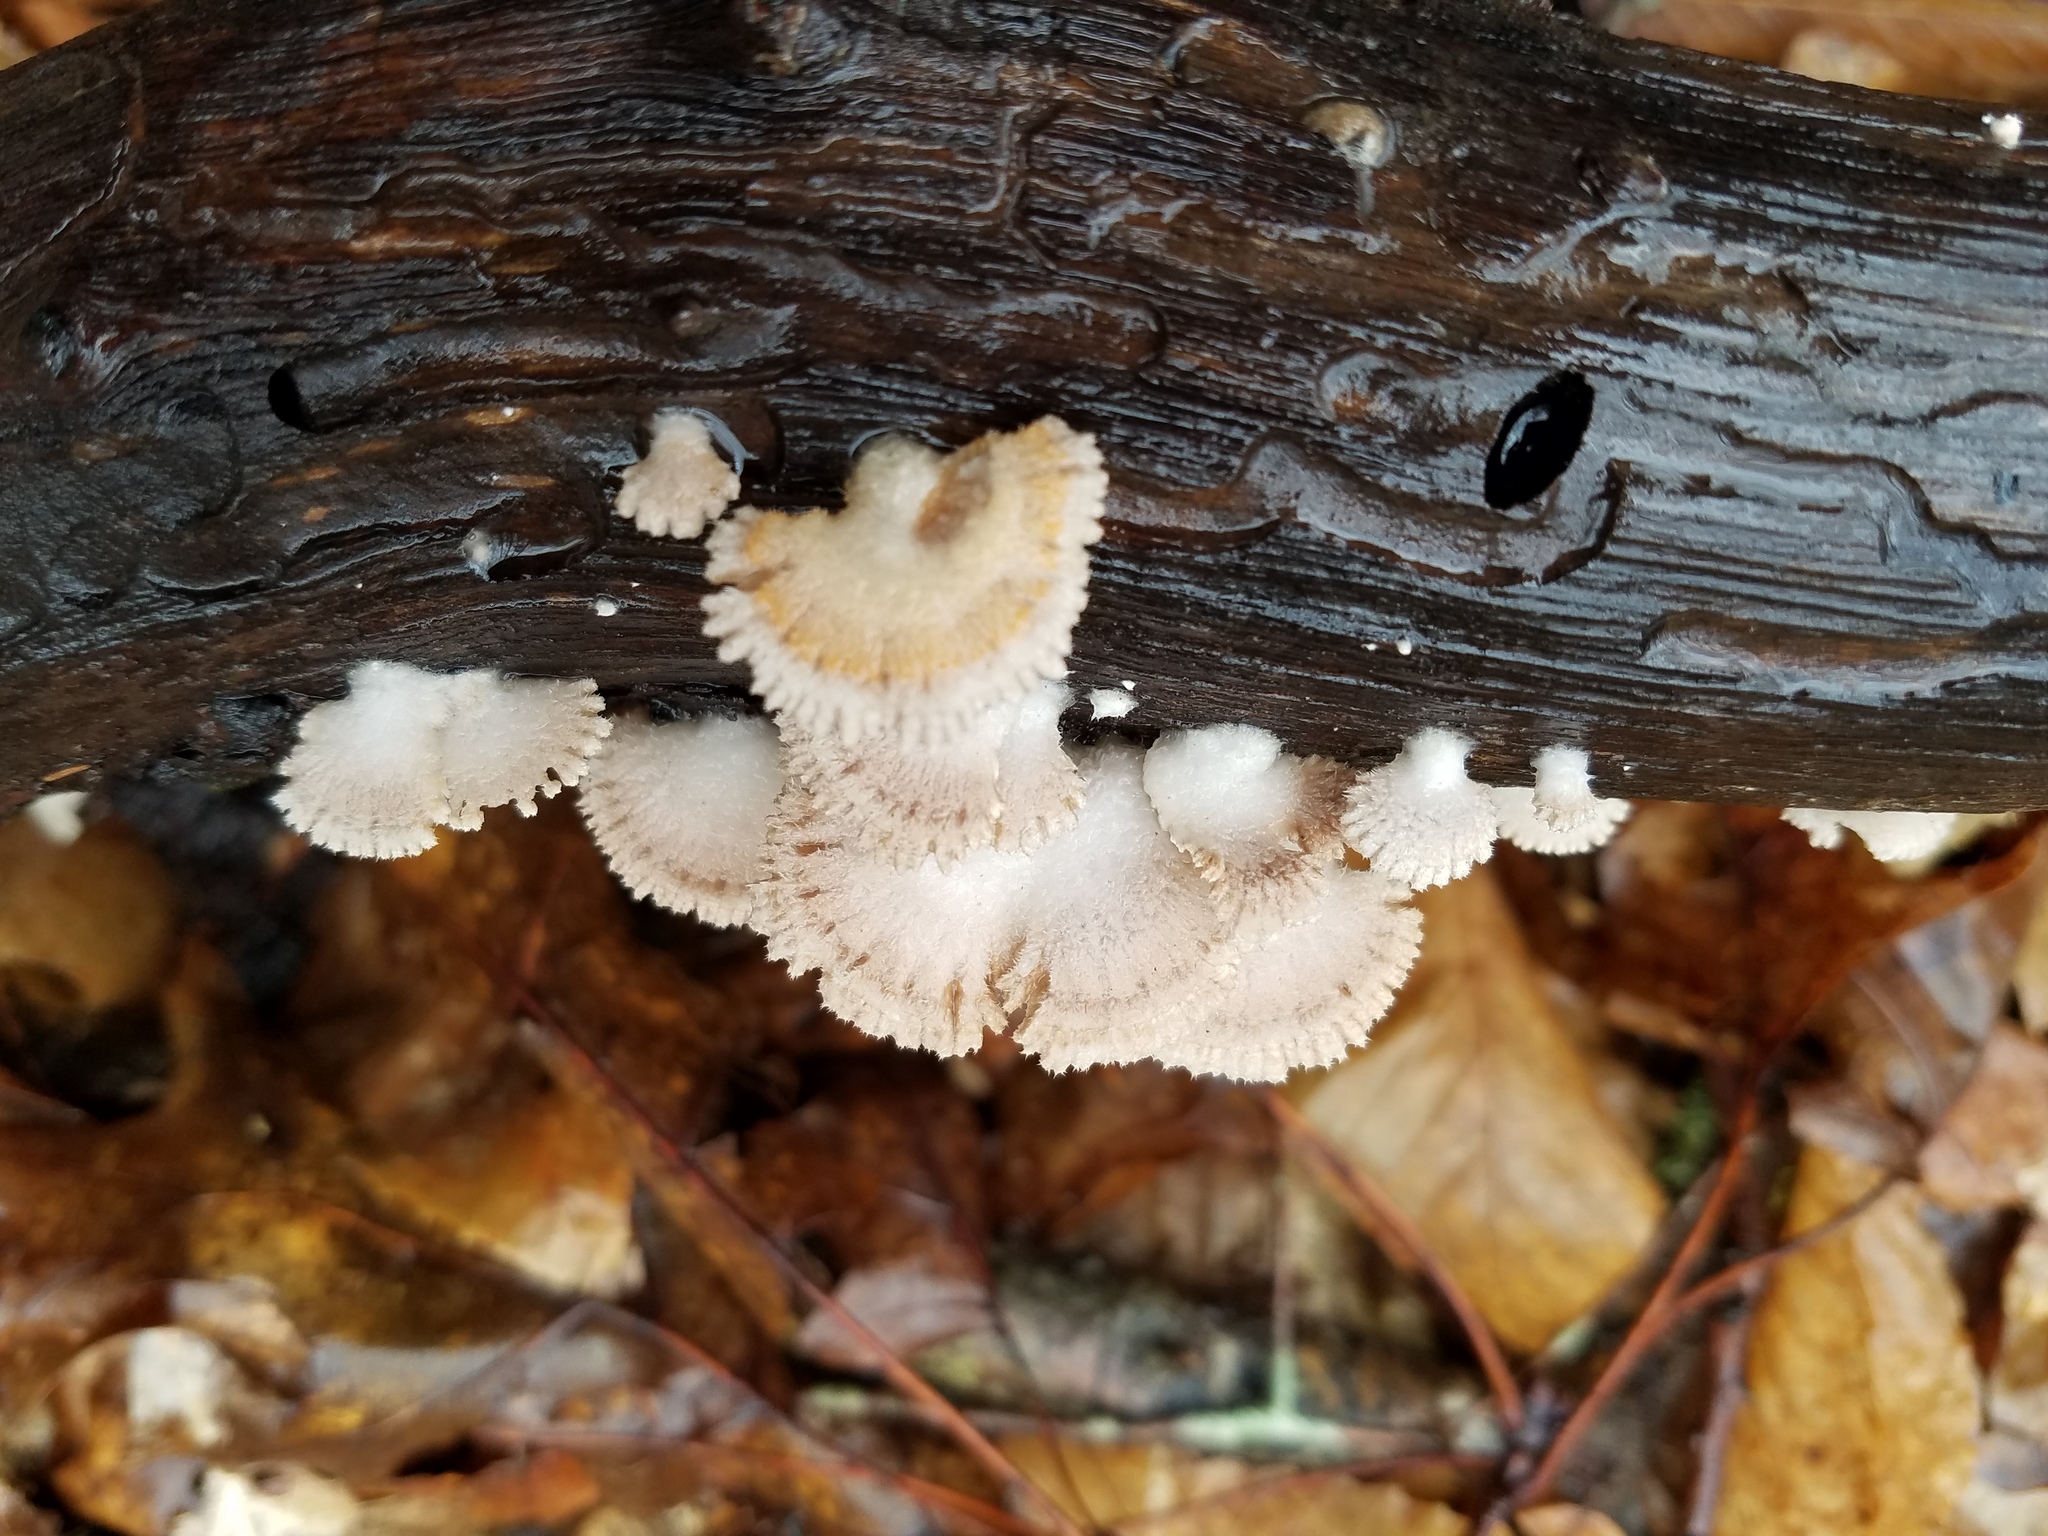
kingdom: Fungi
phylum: Basidiomycota
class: Agaricomycetes
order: Agaricales
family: Schizophyllaceae
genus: Schizophyllum
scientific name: Schizophyllum commune
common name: Common porecrust
